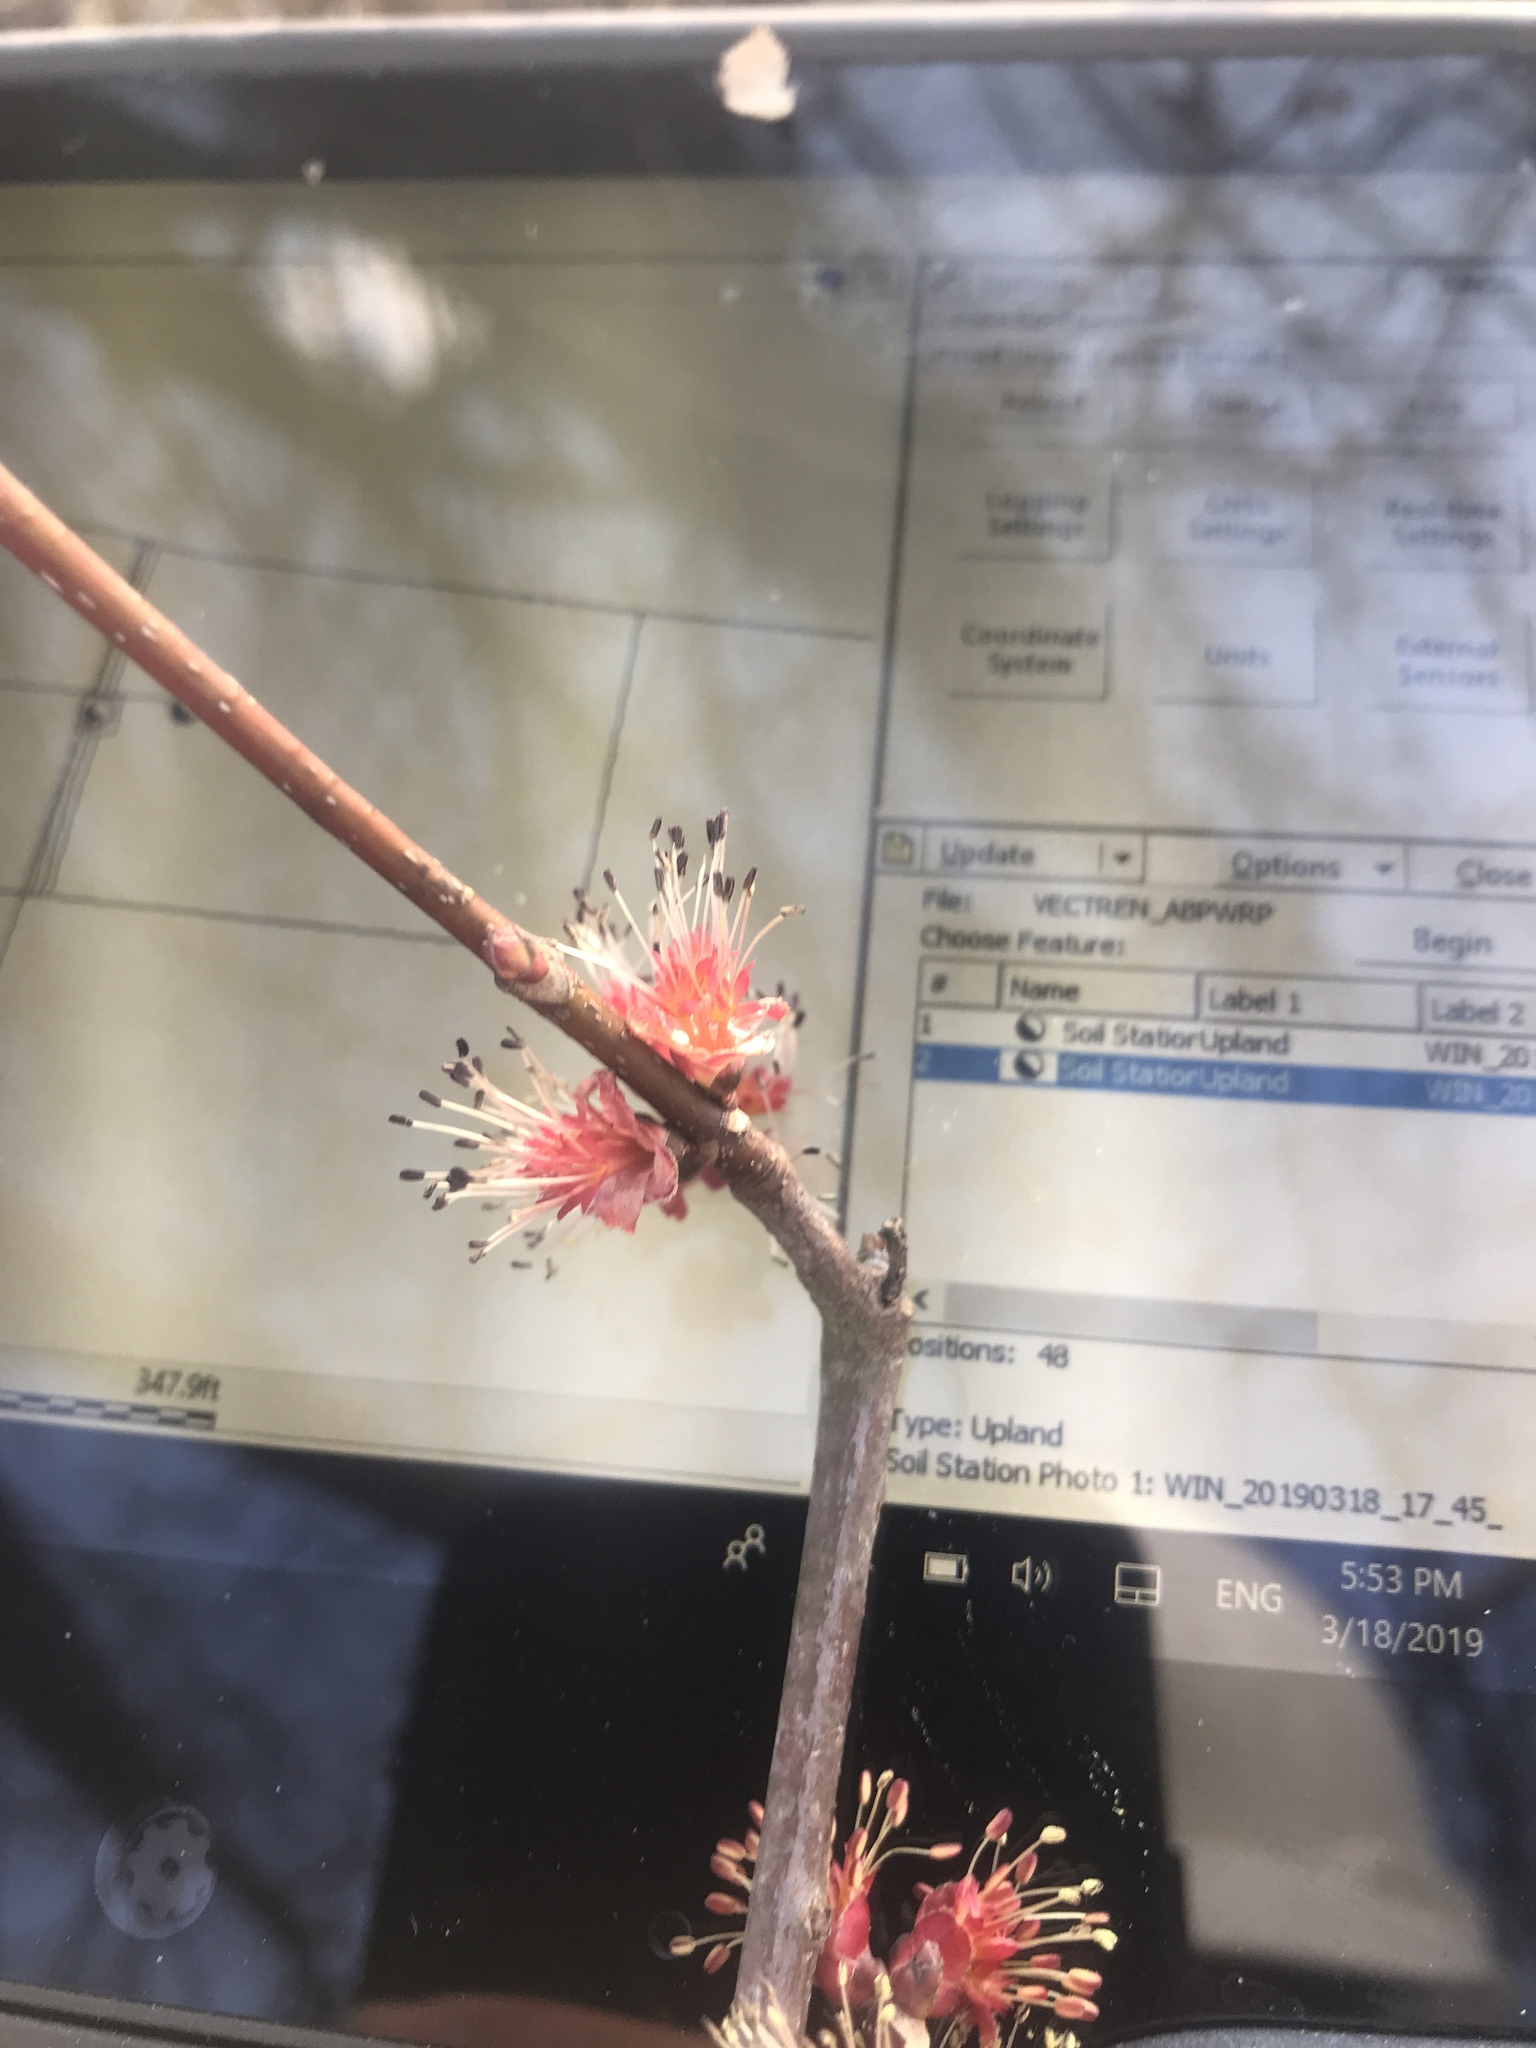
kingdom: Plantae
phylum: Tracheophyta
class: Magnoliopsida
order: Sapindales
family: Sapindaceae
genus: Acer
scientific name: Acer rubrum
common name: Red maple
